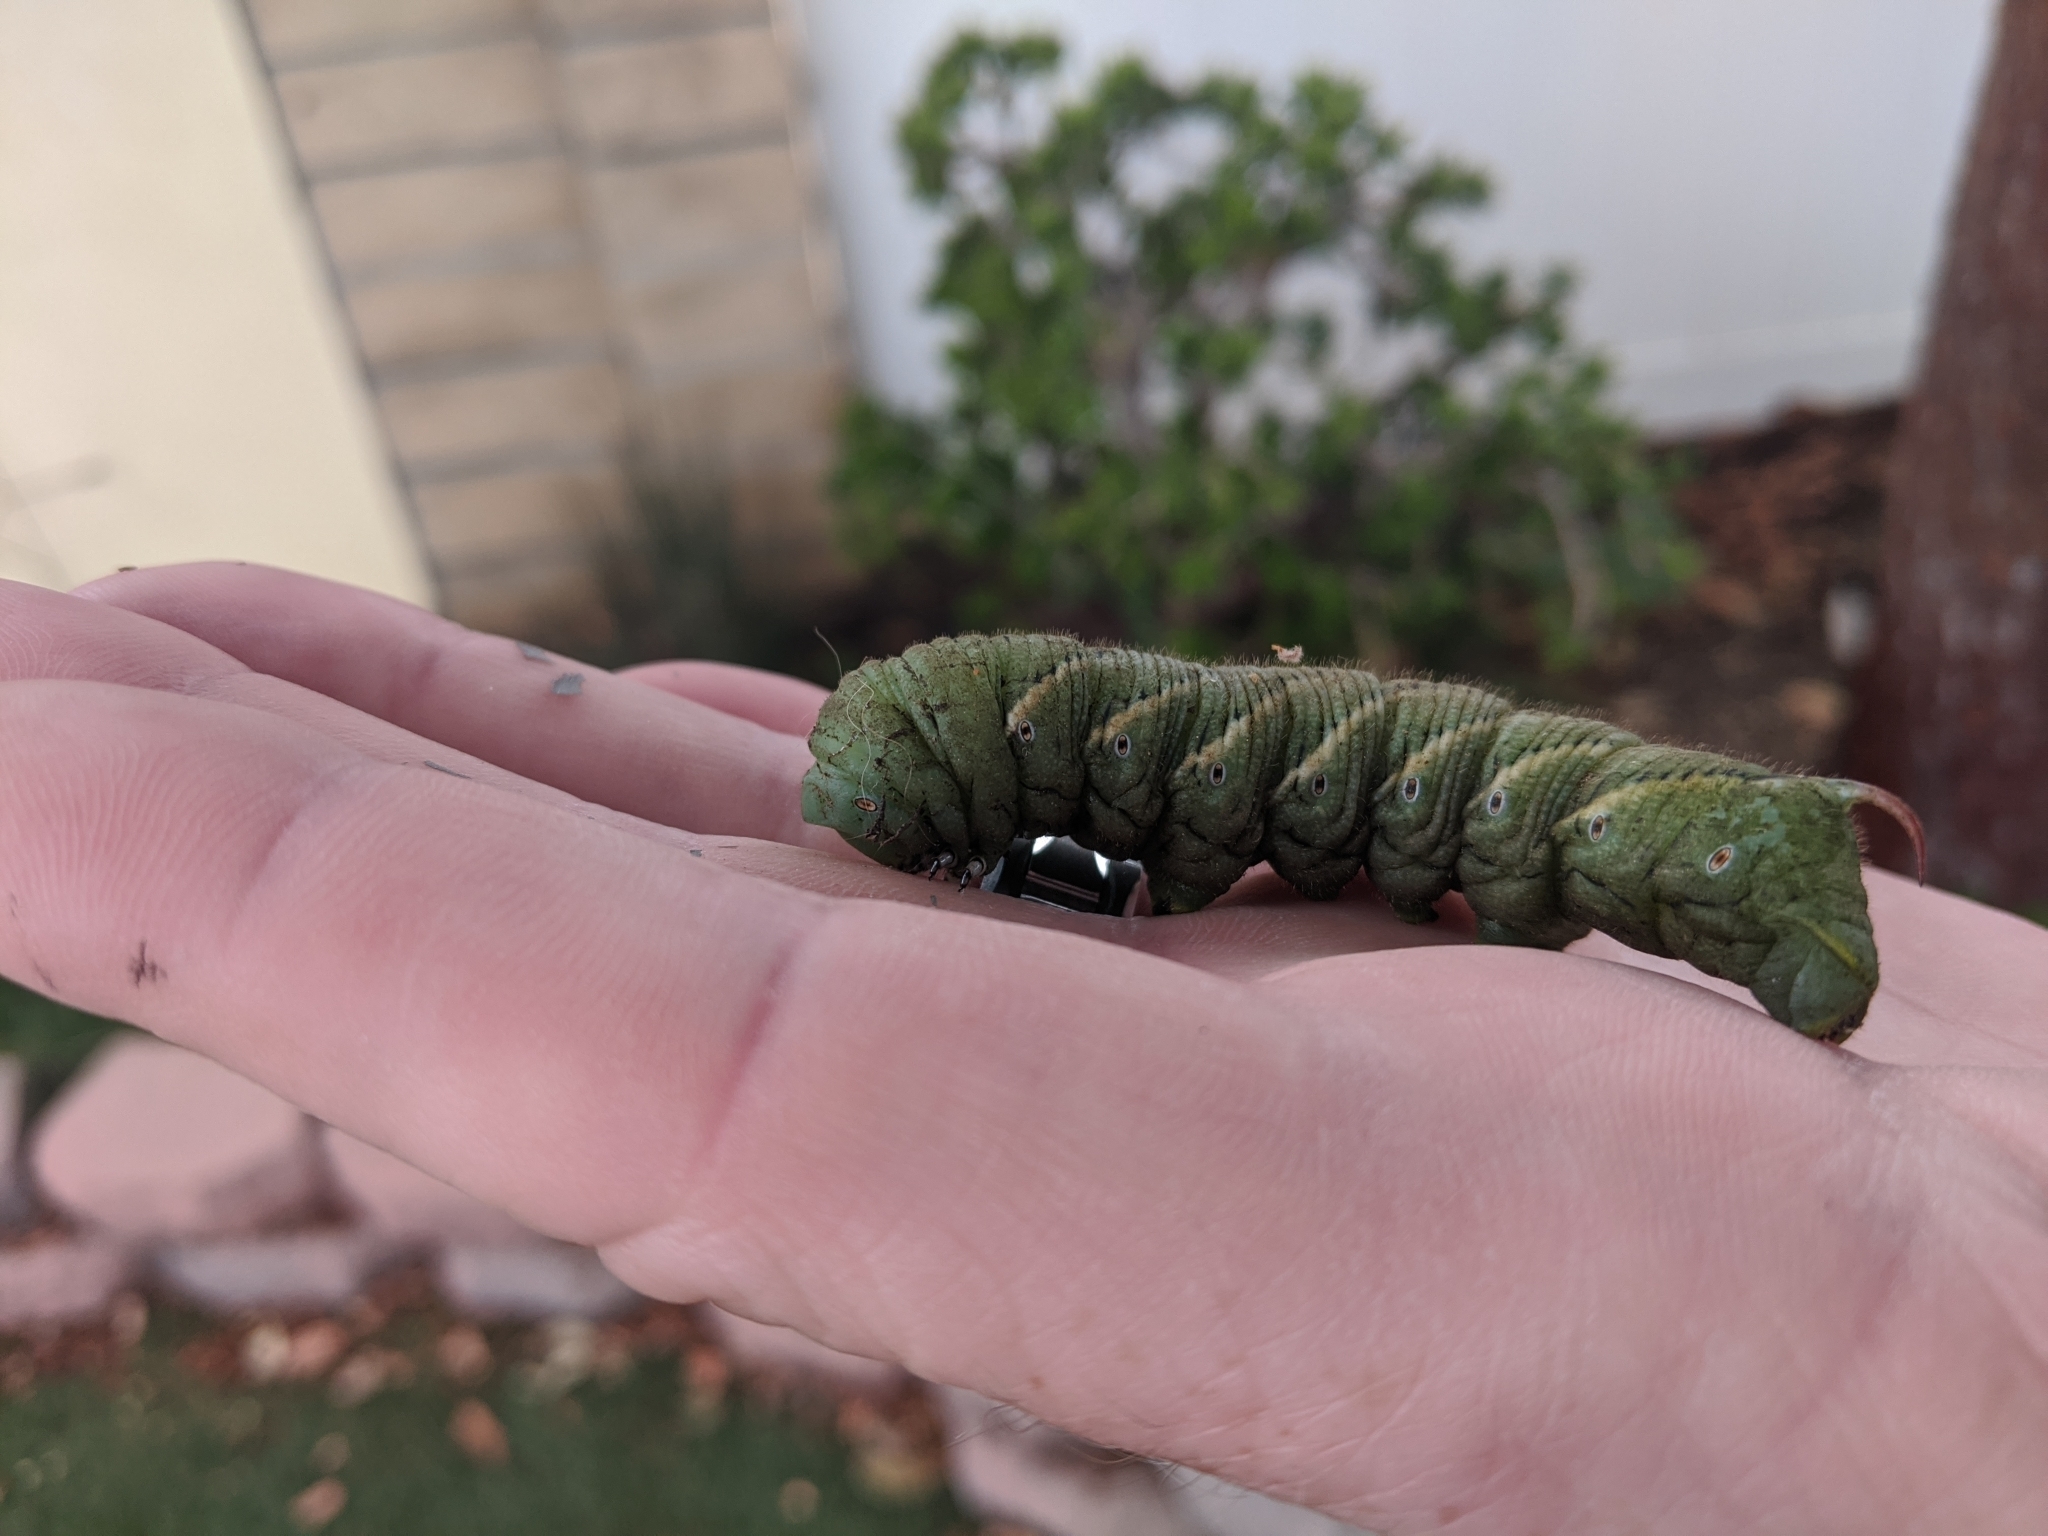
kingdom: Animalia
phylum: Arthropoda
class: Insecta
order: Lepidoptera
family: Sphingidae
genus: Manduca
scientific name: Manduca sexta
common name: Carolina sphinx
